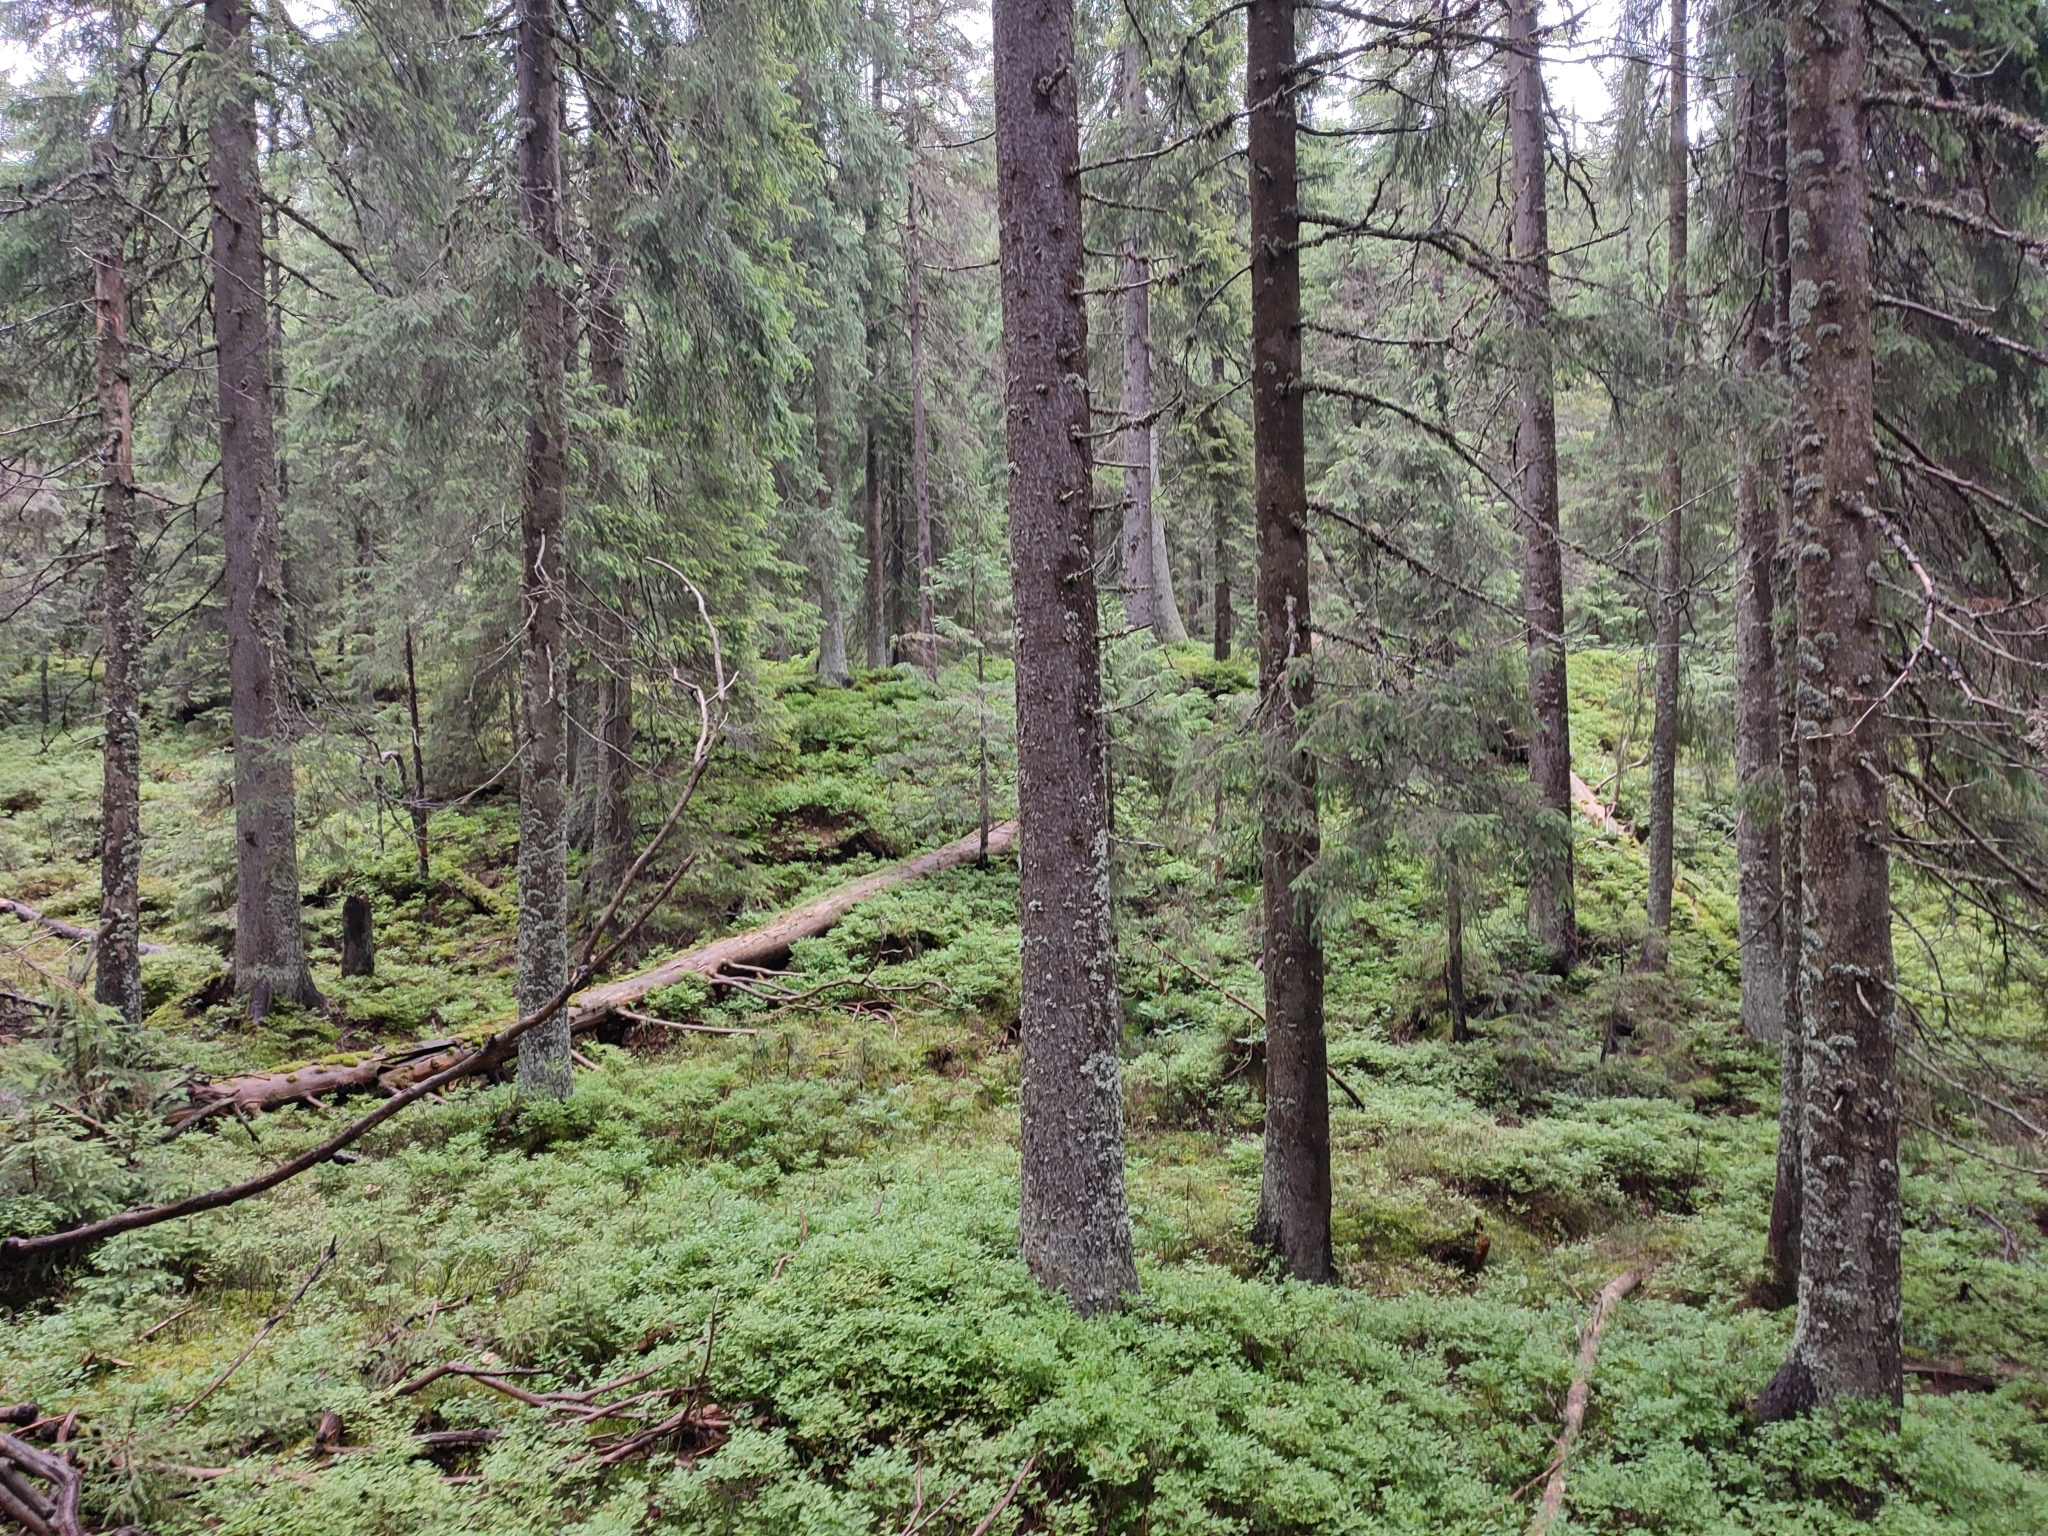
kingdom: Plantae
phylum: Tracheophyta
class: Pinopsida
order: Pinales
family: Pinaceae
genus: Picea
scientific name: Picea abies
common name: Norway spruce
